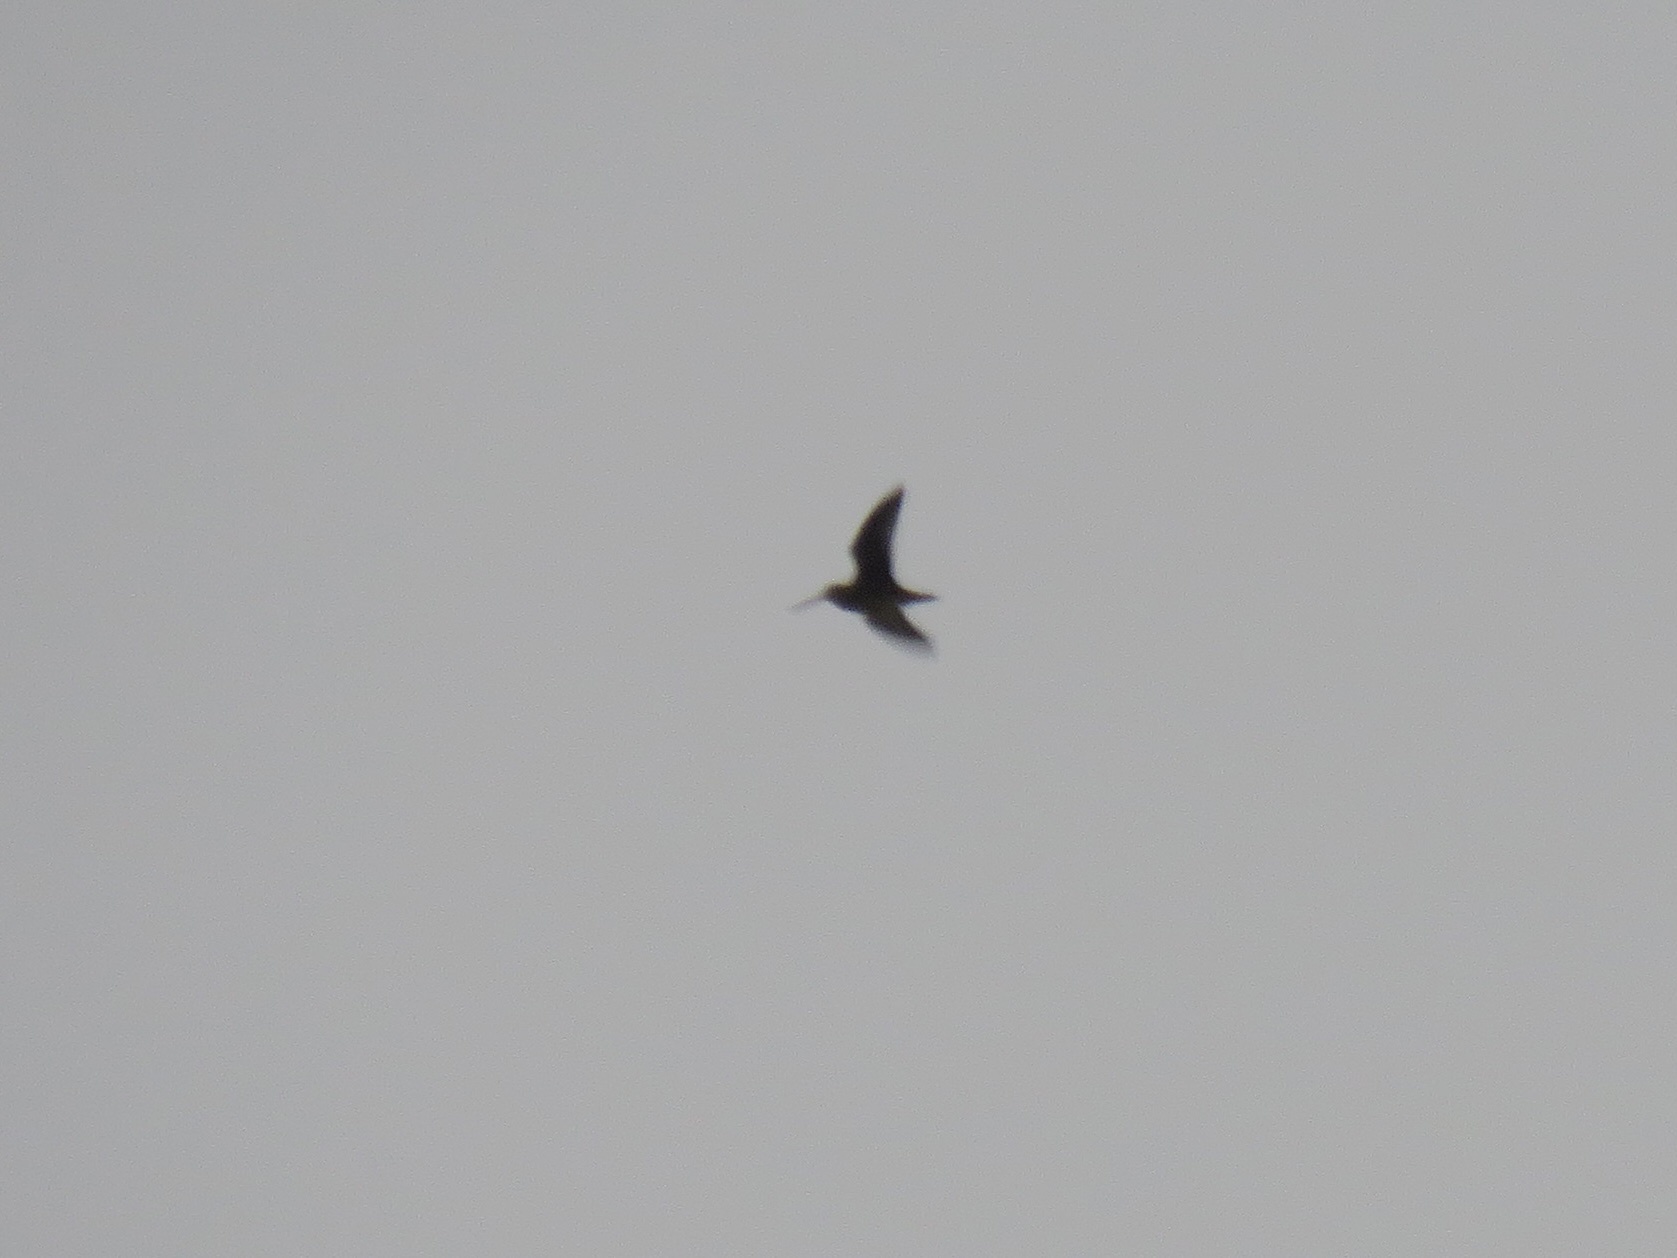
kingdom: Animalia
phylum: Chordata
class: Aves
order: Charadriiformes
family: Scolopacidae
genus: Gallinago
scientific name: Gallinago delicata
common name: Wilson's snipe
